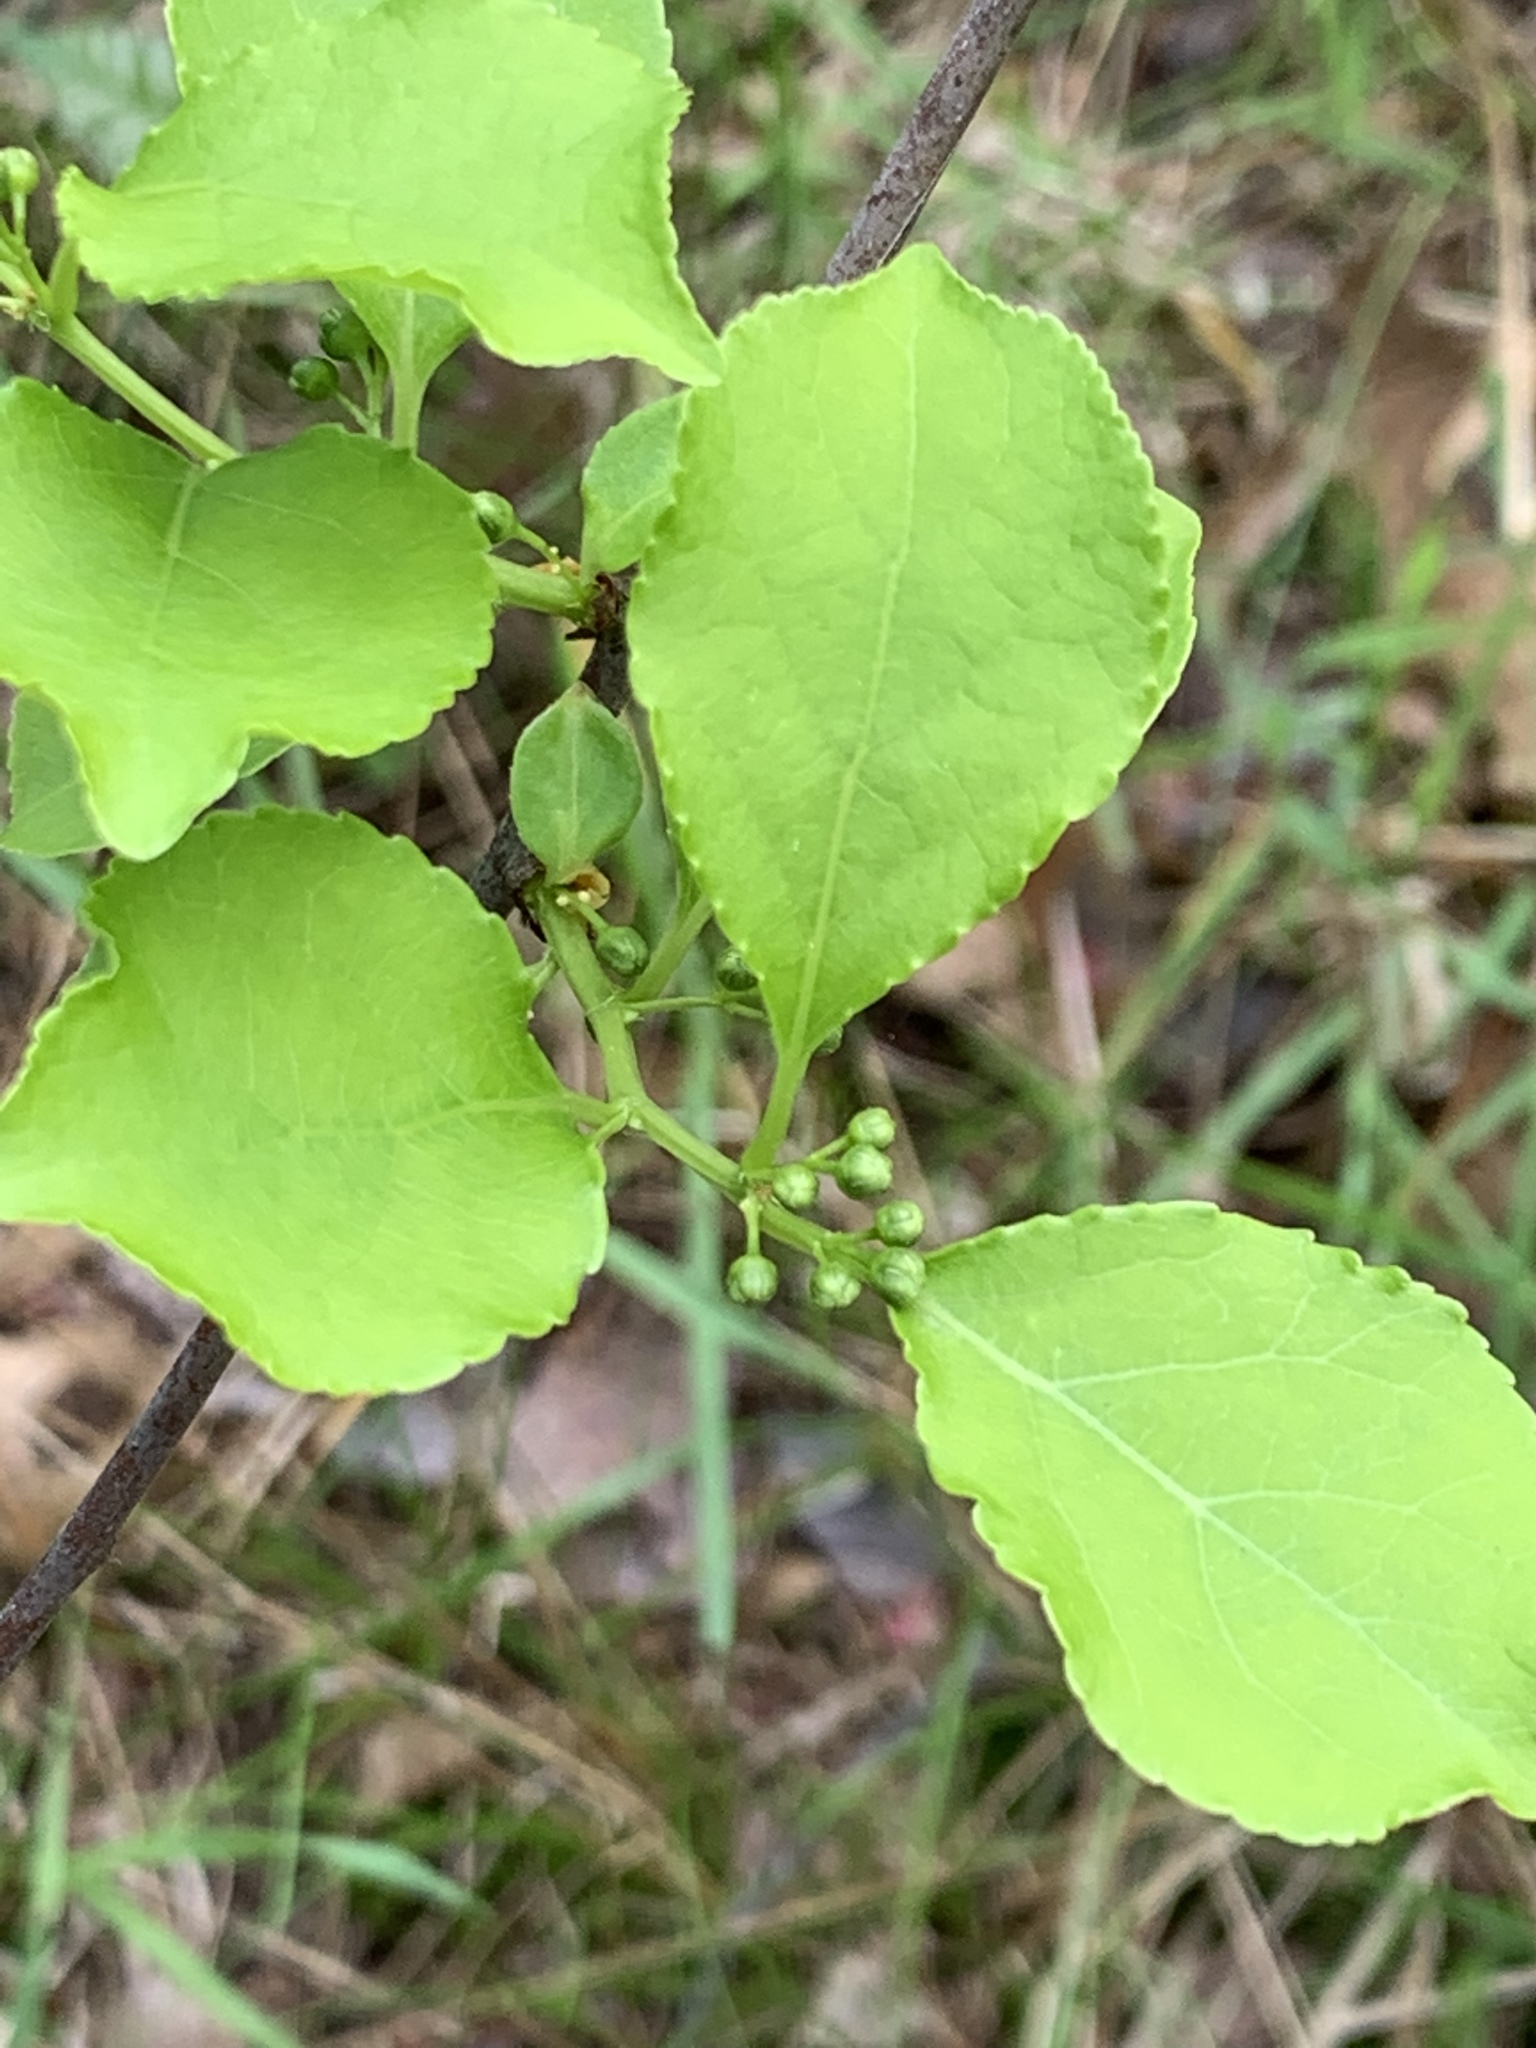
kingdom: Plantae
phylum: Tracheophyta
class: Magnoliopsida
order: Celastrales
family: Celastraceae
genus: Celastrus
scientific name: Celastrus orbiculatus
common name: Oriental bittersweet
